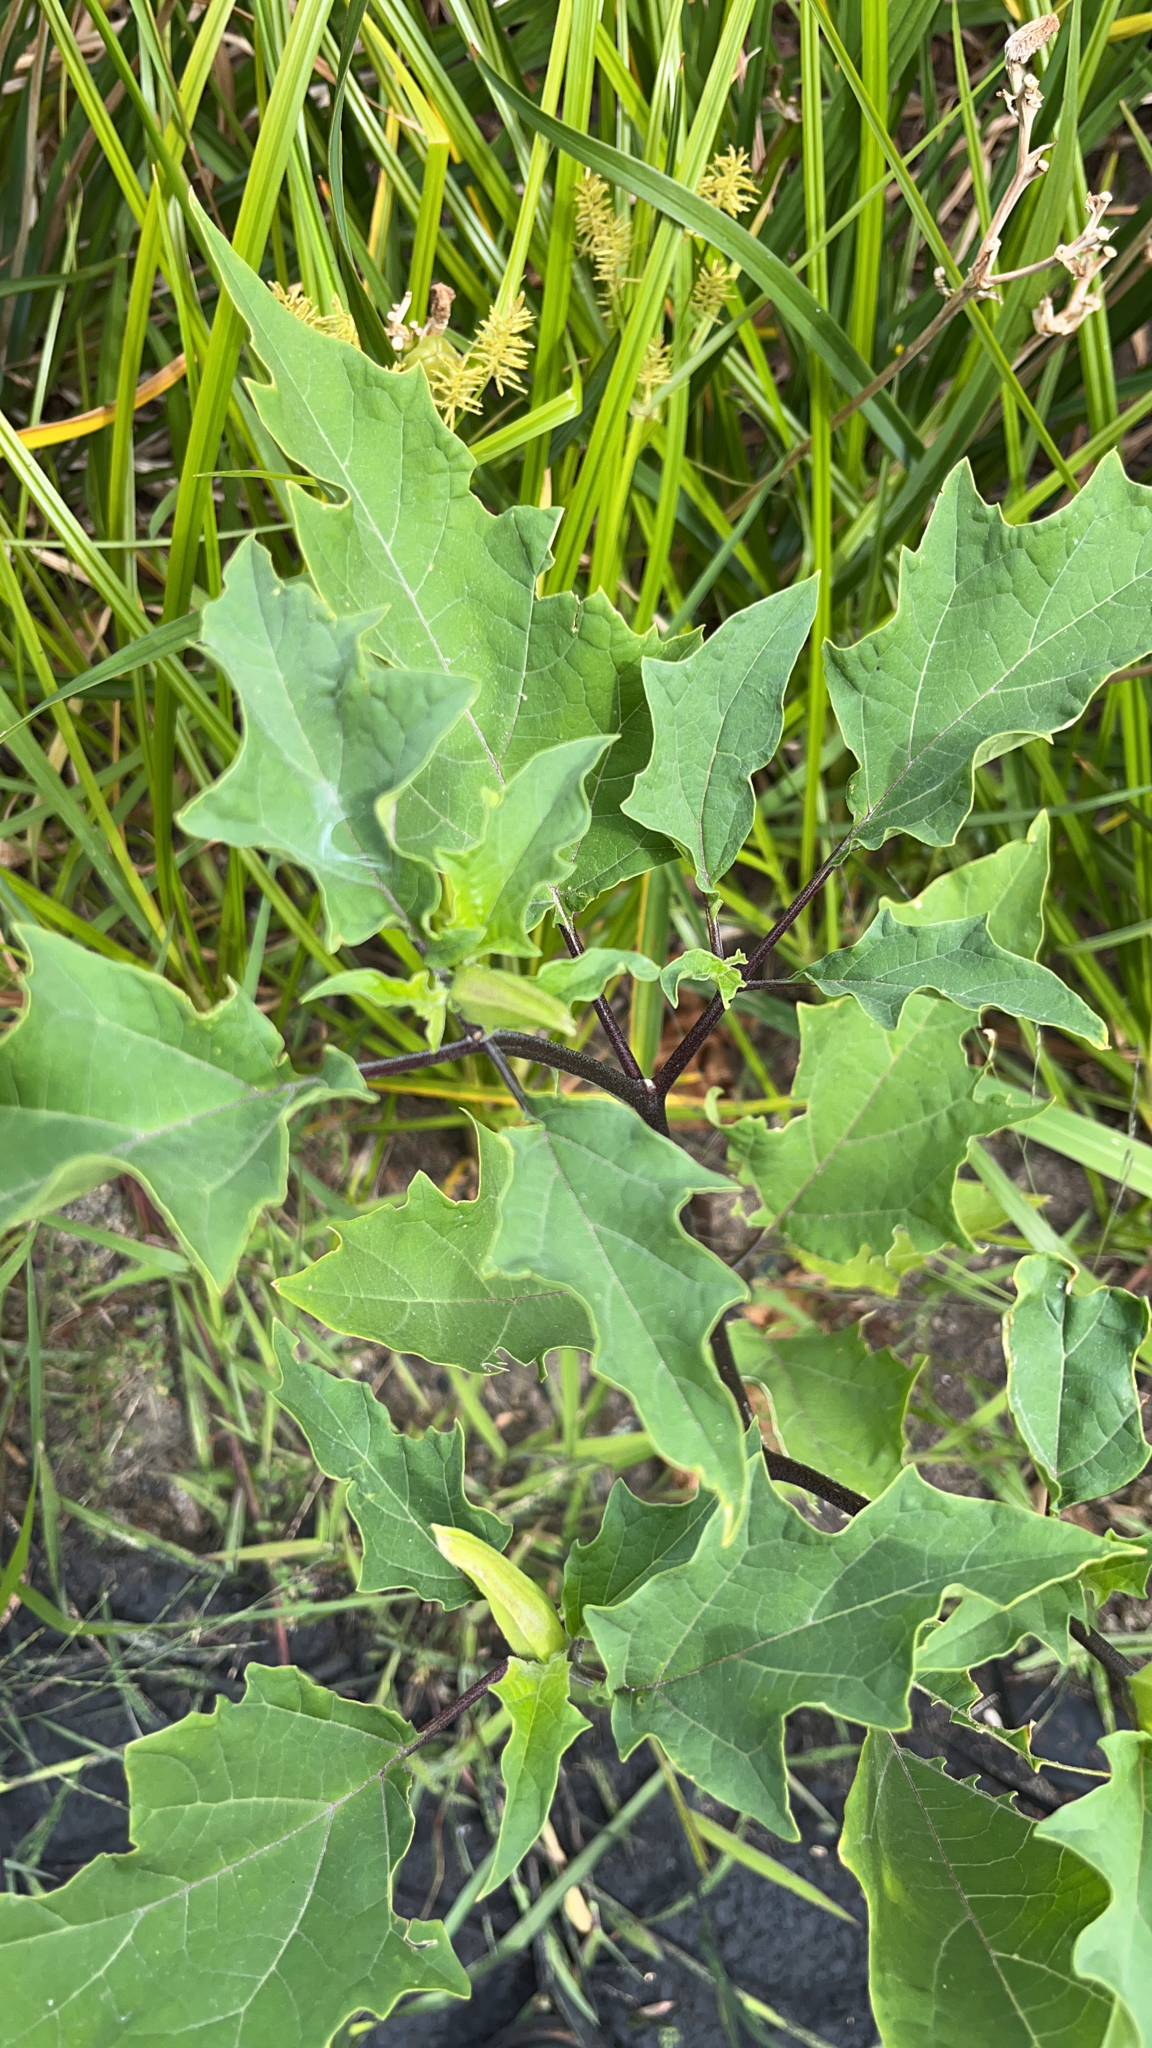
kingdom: Plantae
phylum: Tracheophyta
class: Magnoliopsida
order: Solanales
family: Solanaceae
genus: Datura
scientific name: Datura stramonium
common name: Thorn-apple
